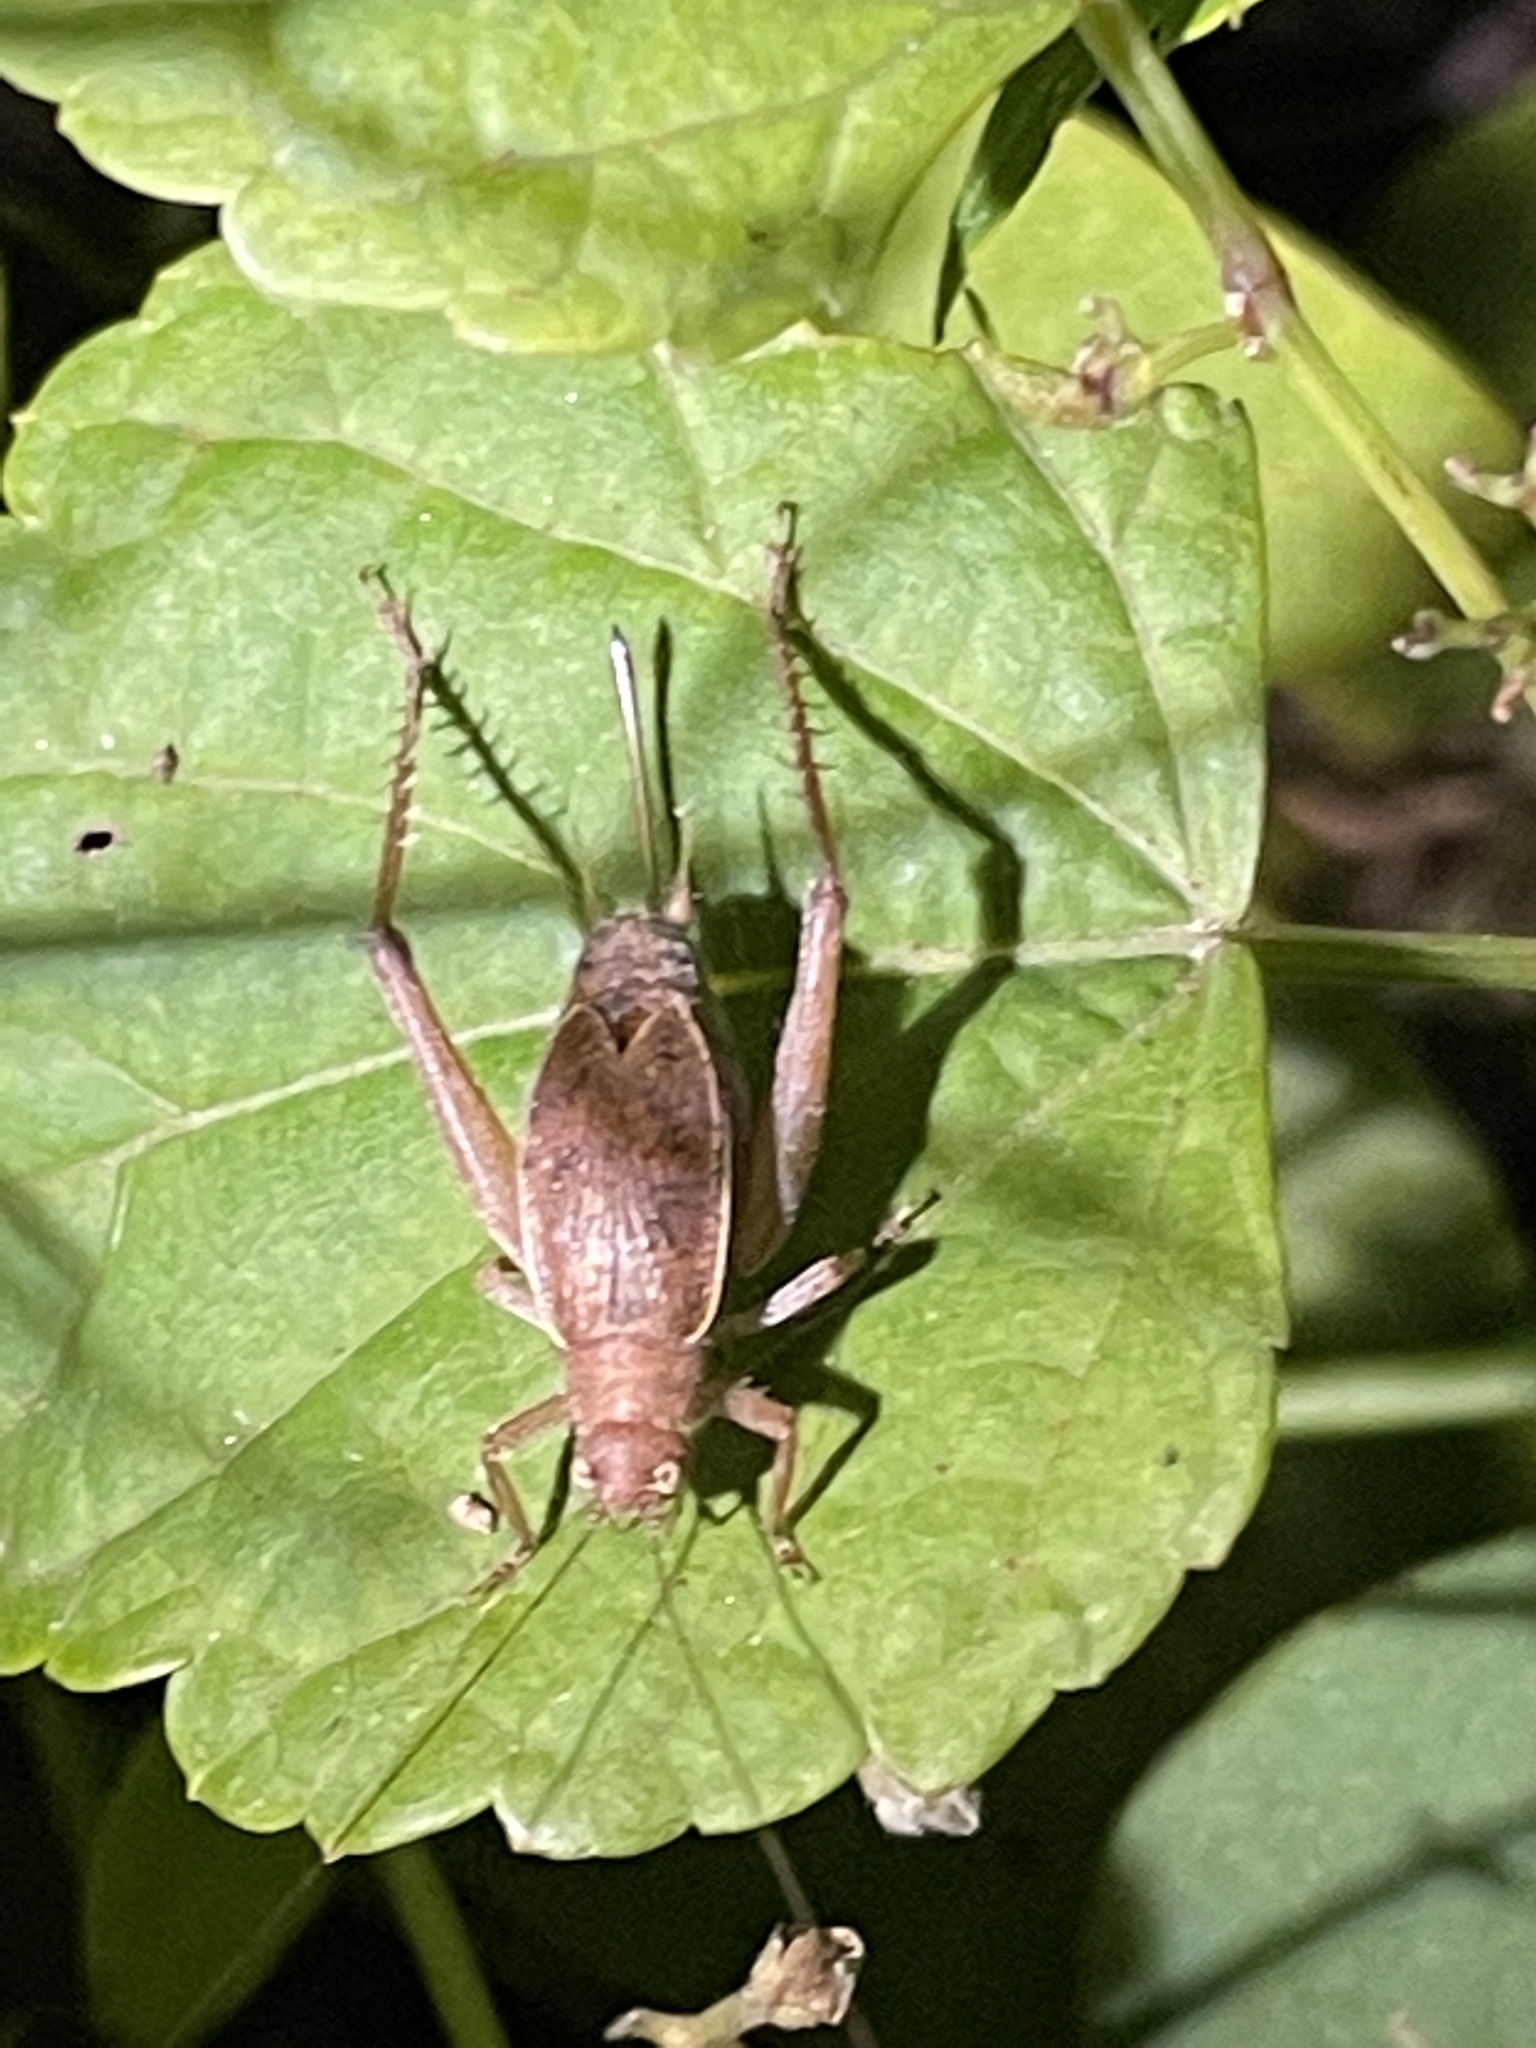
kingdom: Animalia
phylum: Arthropoda
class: Insecta
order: Orthoptera
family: Gryllidae
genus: Hapithus
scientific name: Hapithus agitator
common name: Restless bush cricket
